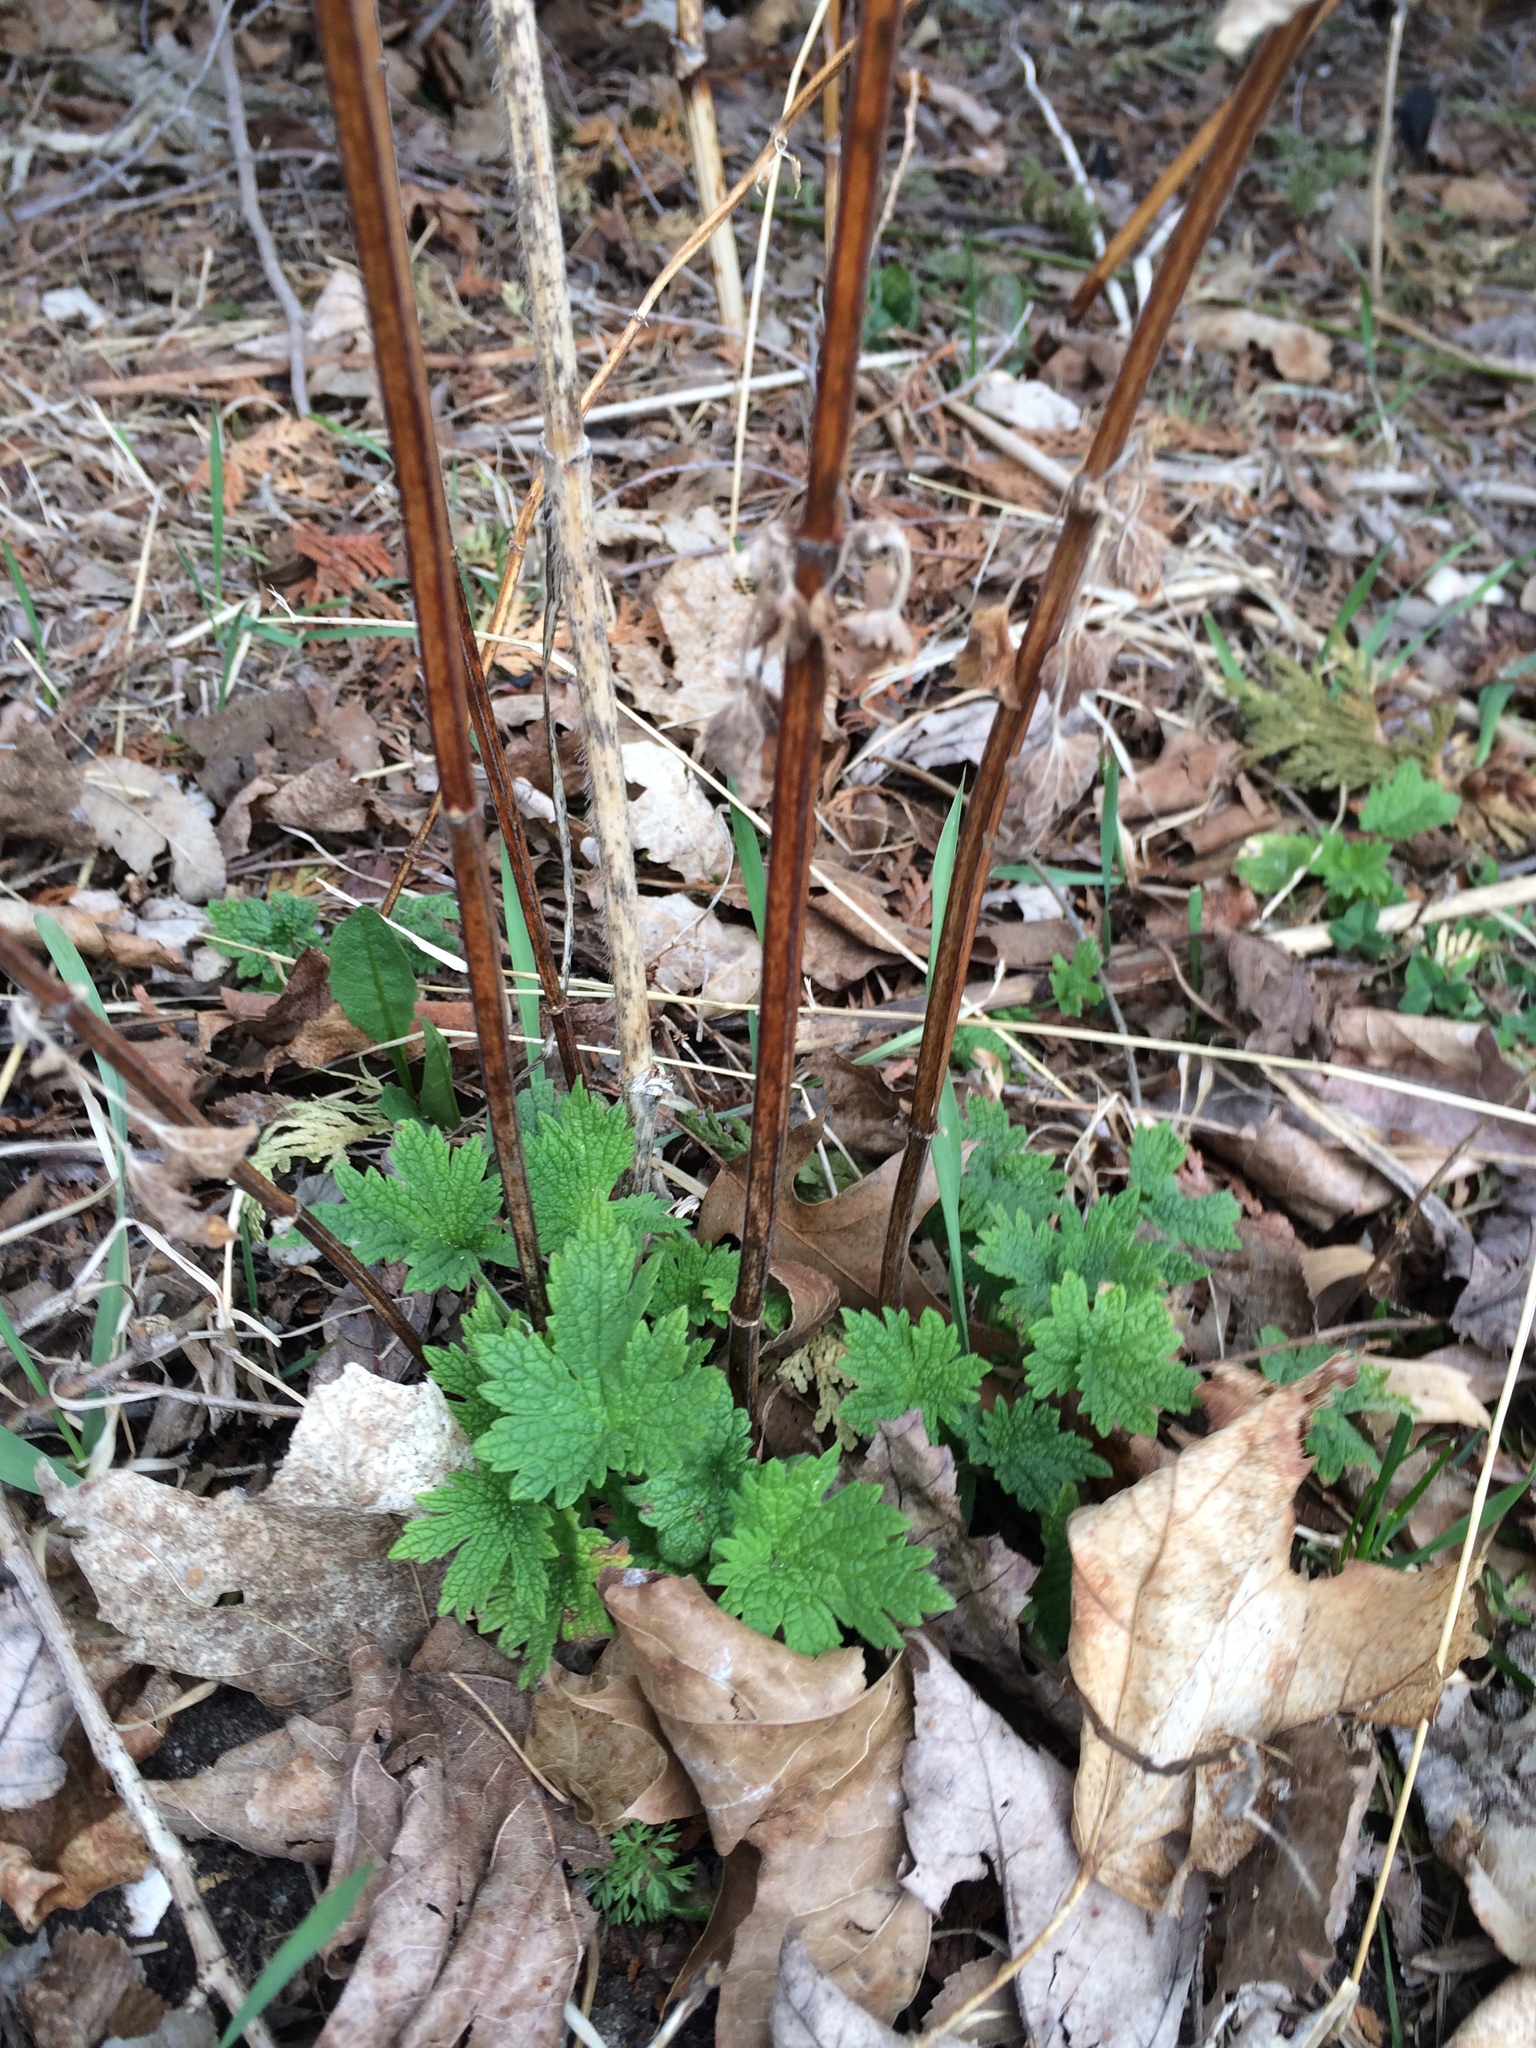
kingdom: Plantae
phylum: Tracheophyta
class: Magnoliopsida
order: Lamiales
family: Lamiaceae
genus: Leonurus
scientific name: Leonurus cardiaca
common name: Motherwort
